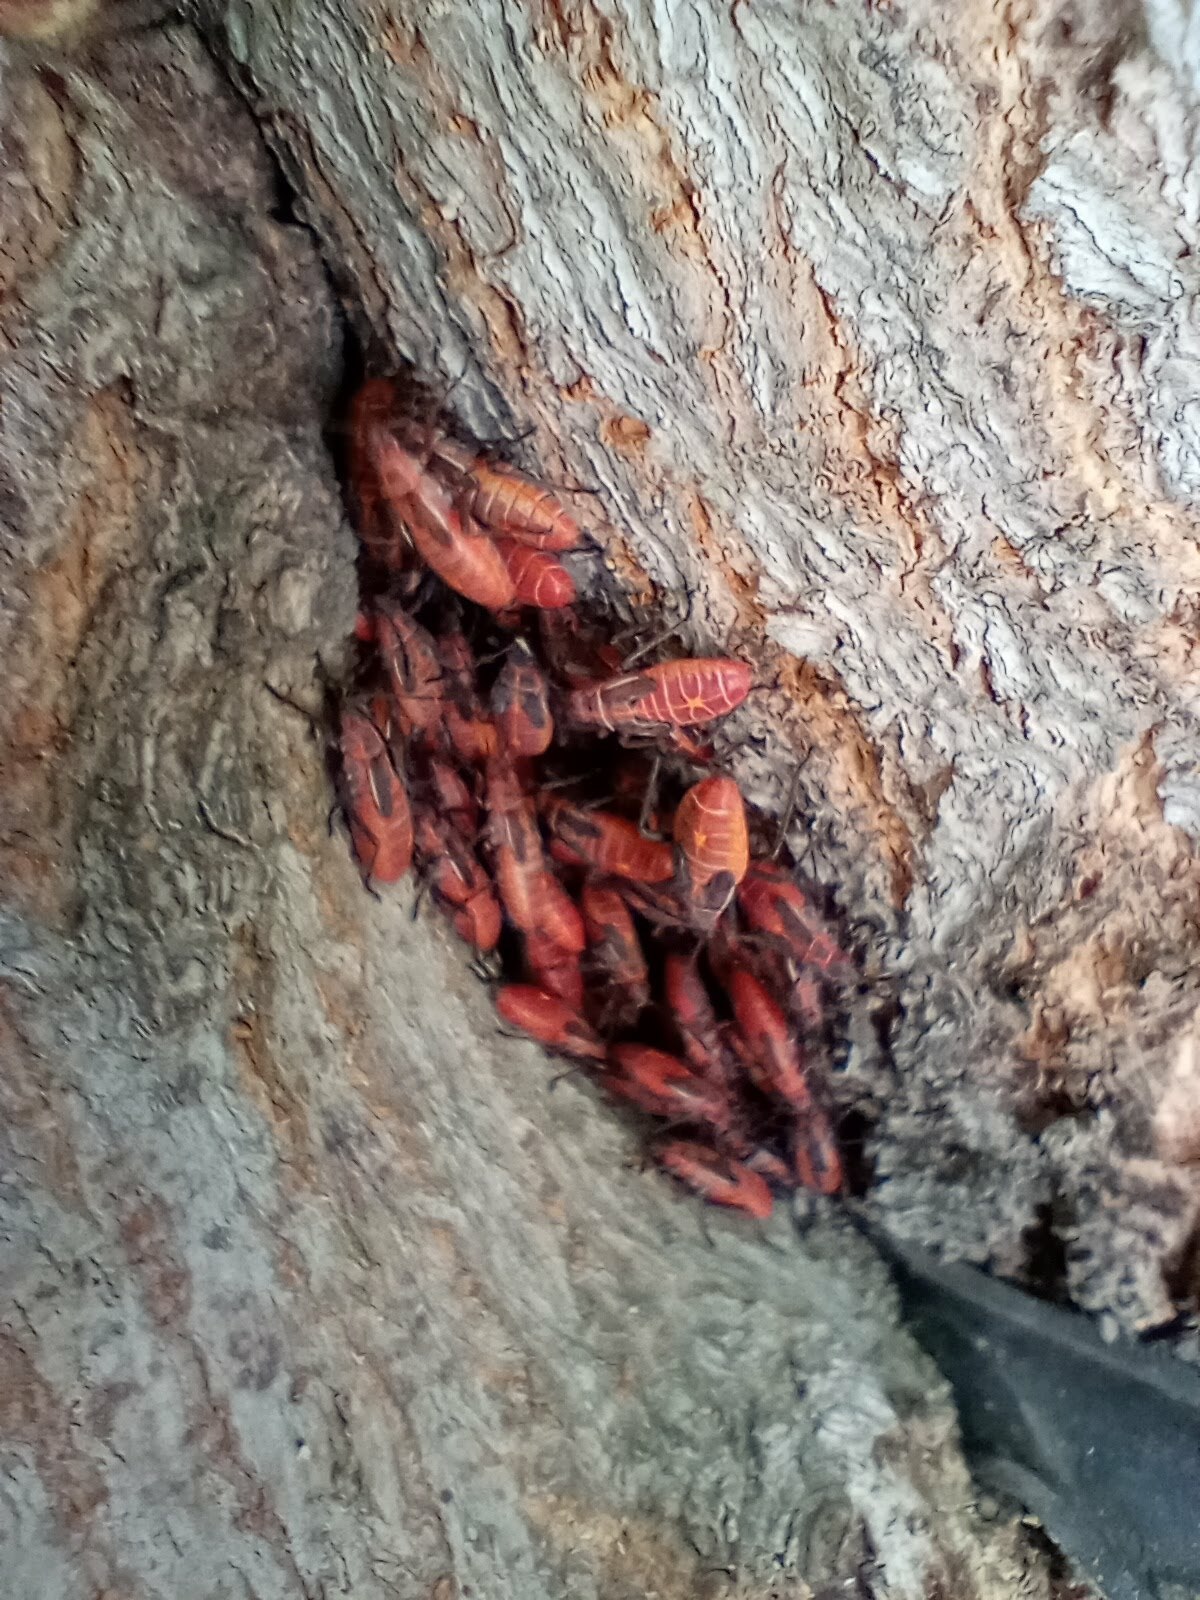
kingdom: Animalia
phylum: Arthropoda
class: Insecta
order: Hemiptera
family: Rhopalidae
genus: Boisea
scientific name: Boisea rubrolineata
